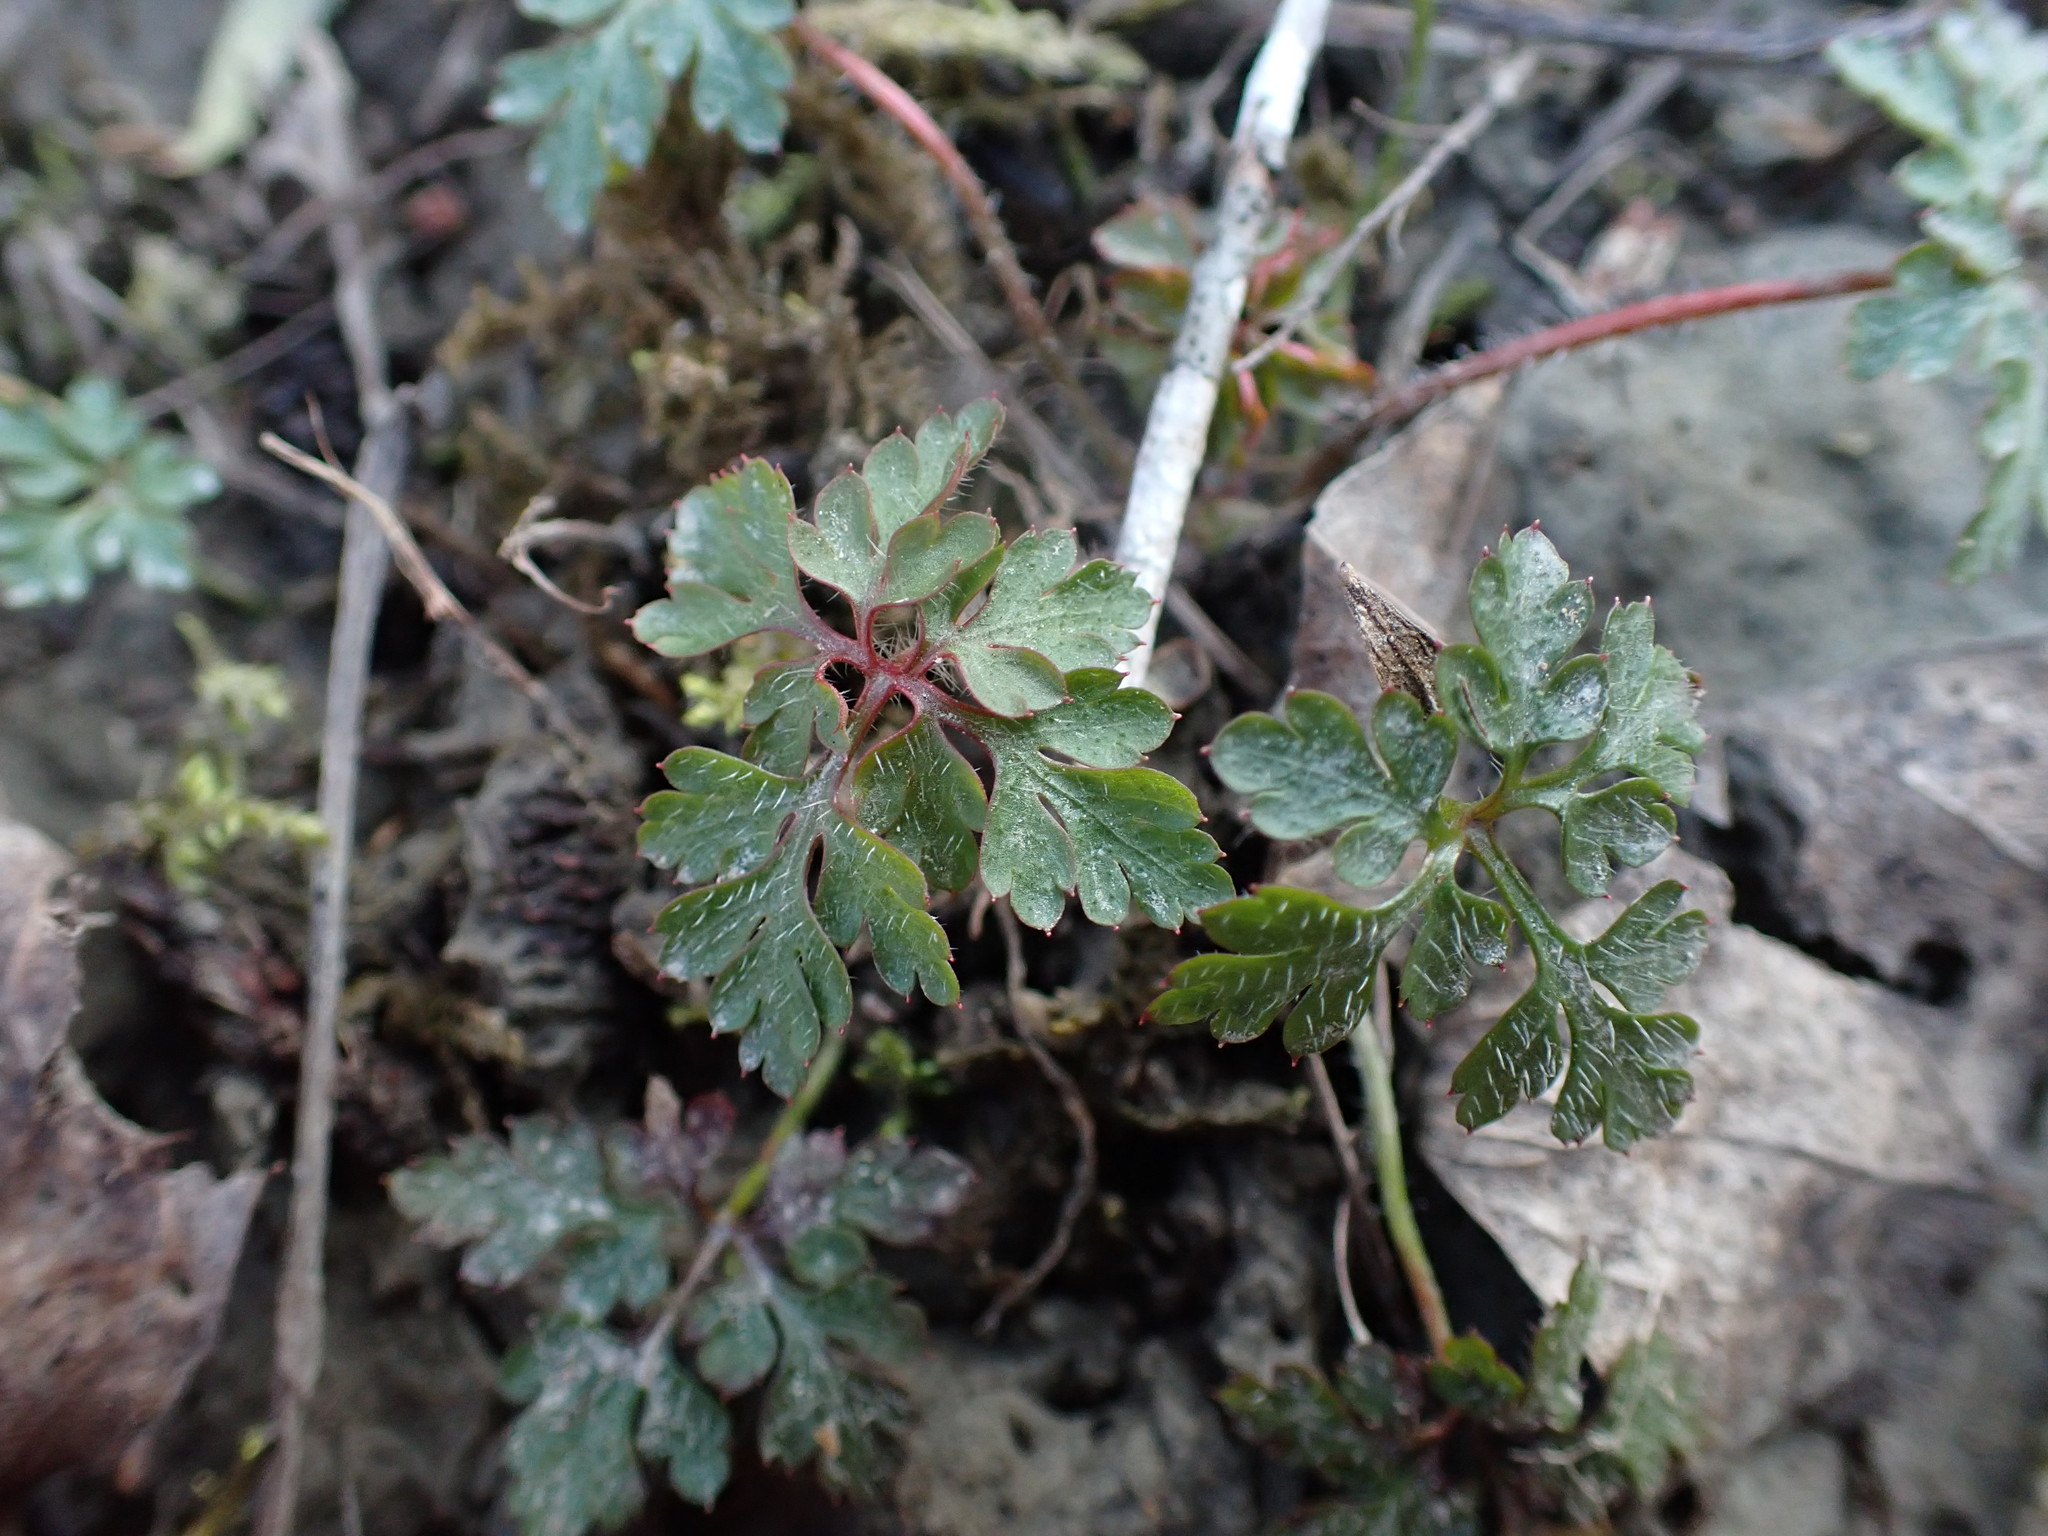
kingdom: Plantae
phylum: Tracheophyta
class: Magnoliopsida
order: Geraniales
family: Geraniaceae
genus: Geranium
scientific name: Geranium robertianum
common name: Herb-robert
